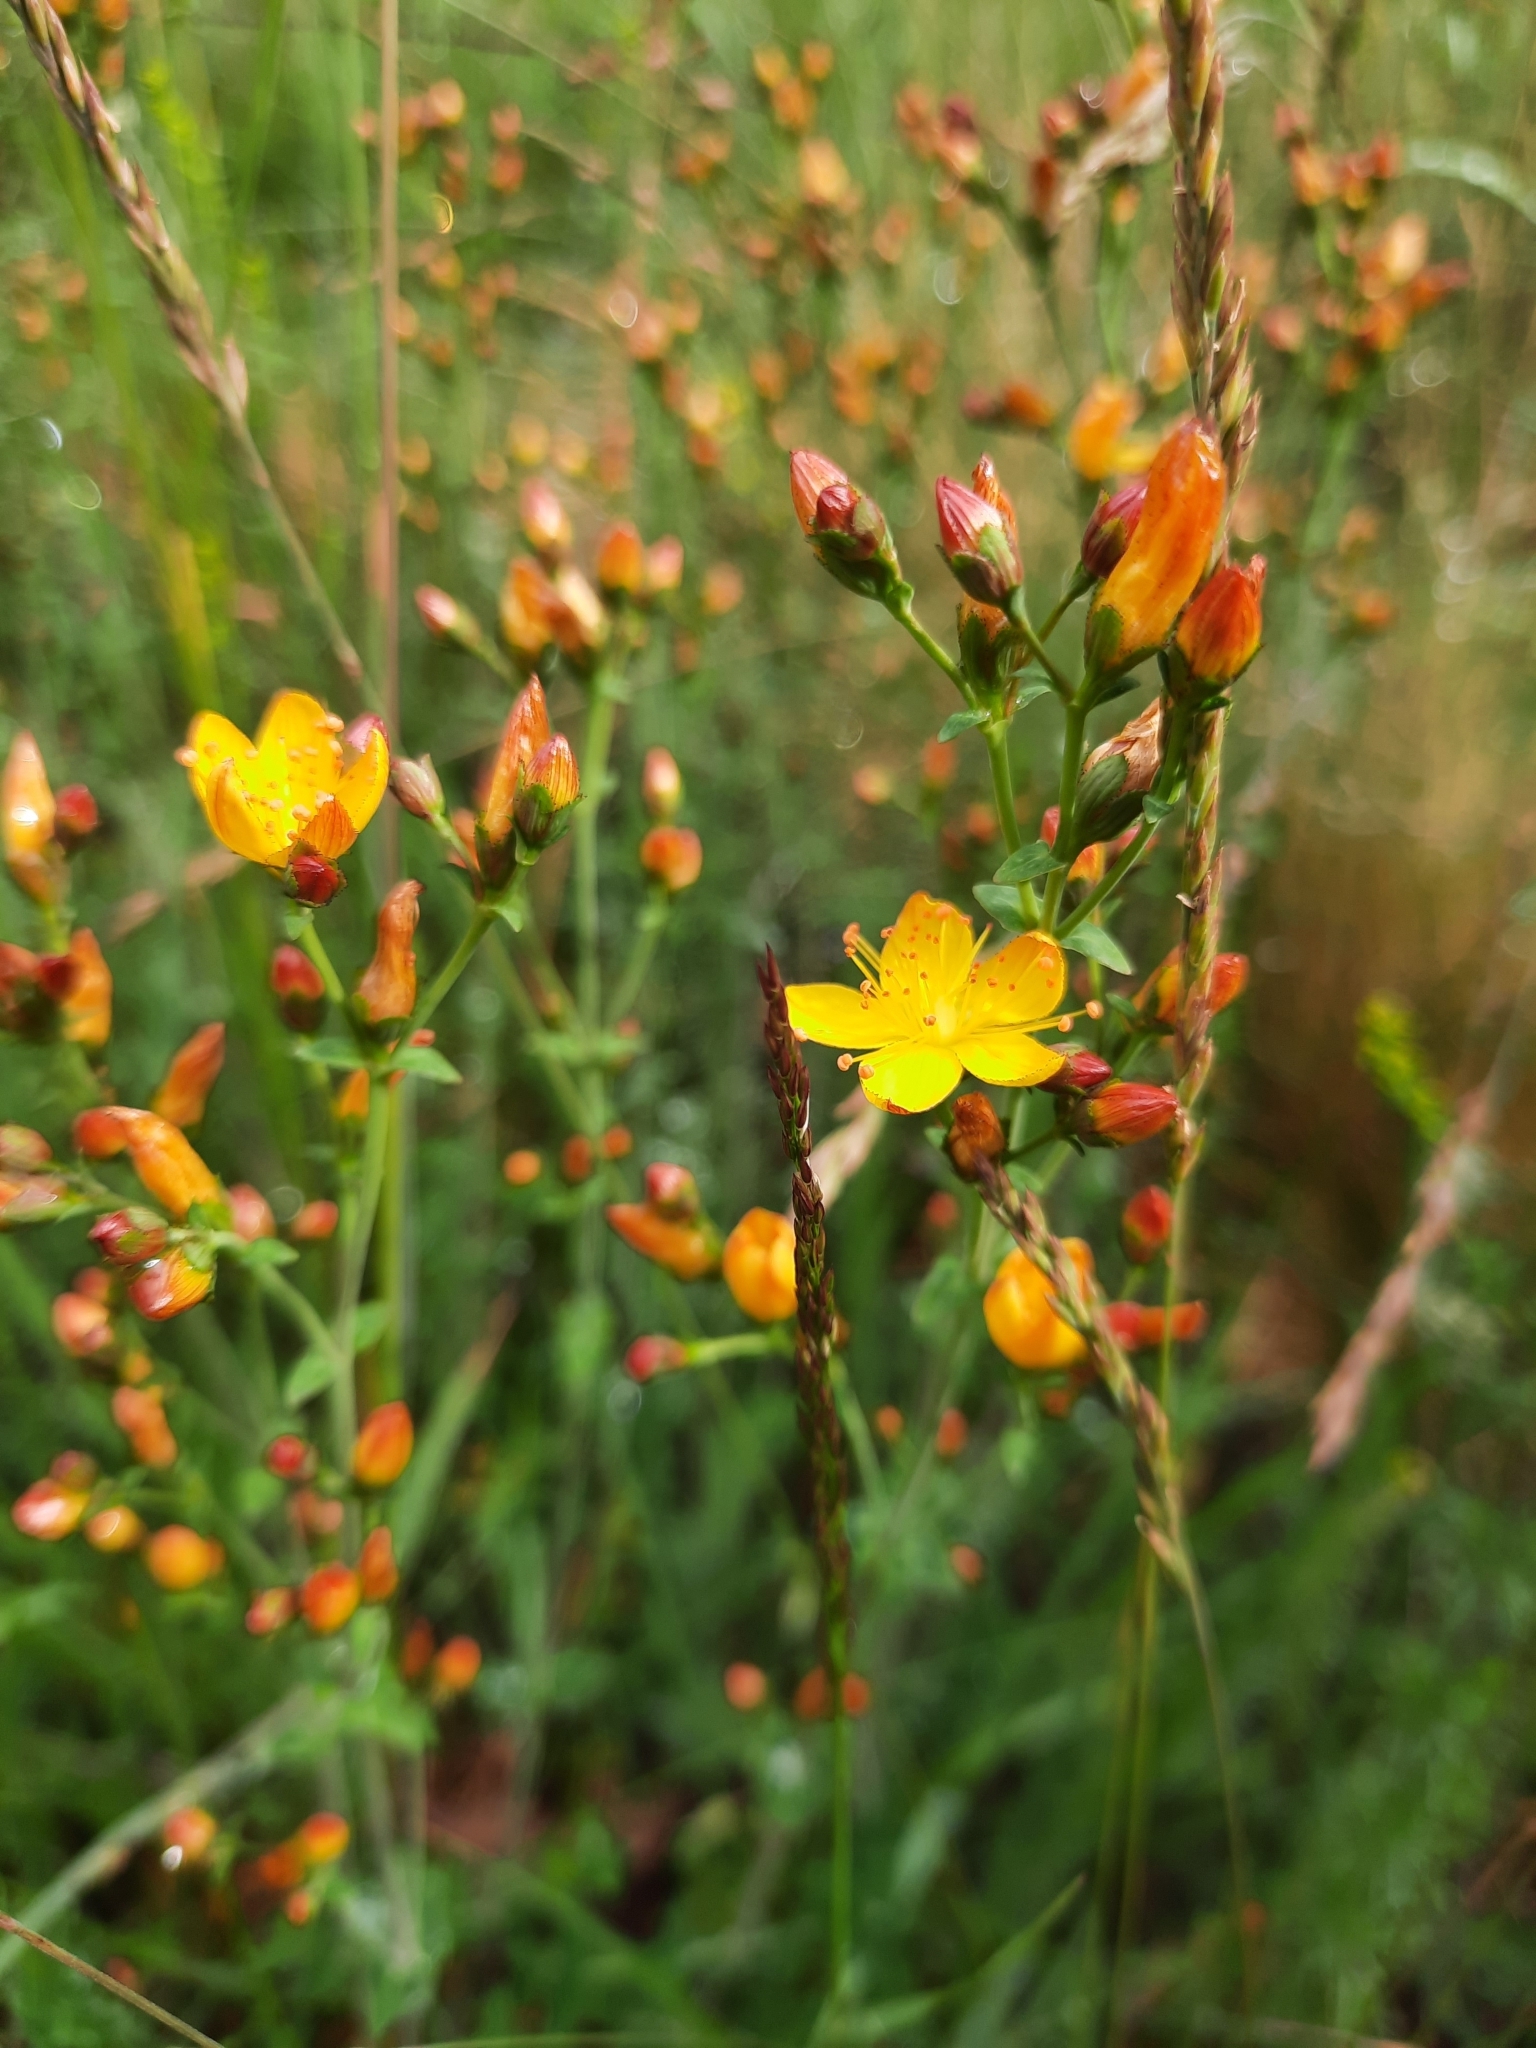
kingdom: Plantae
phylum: Tracheophyta
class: Magnoliopsida
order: Malpighiales
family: Hypericaceae
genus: Hypericum
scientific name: Hypericum pulchrum
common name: Slender st. john's-wort
